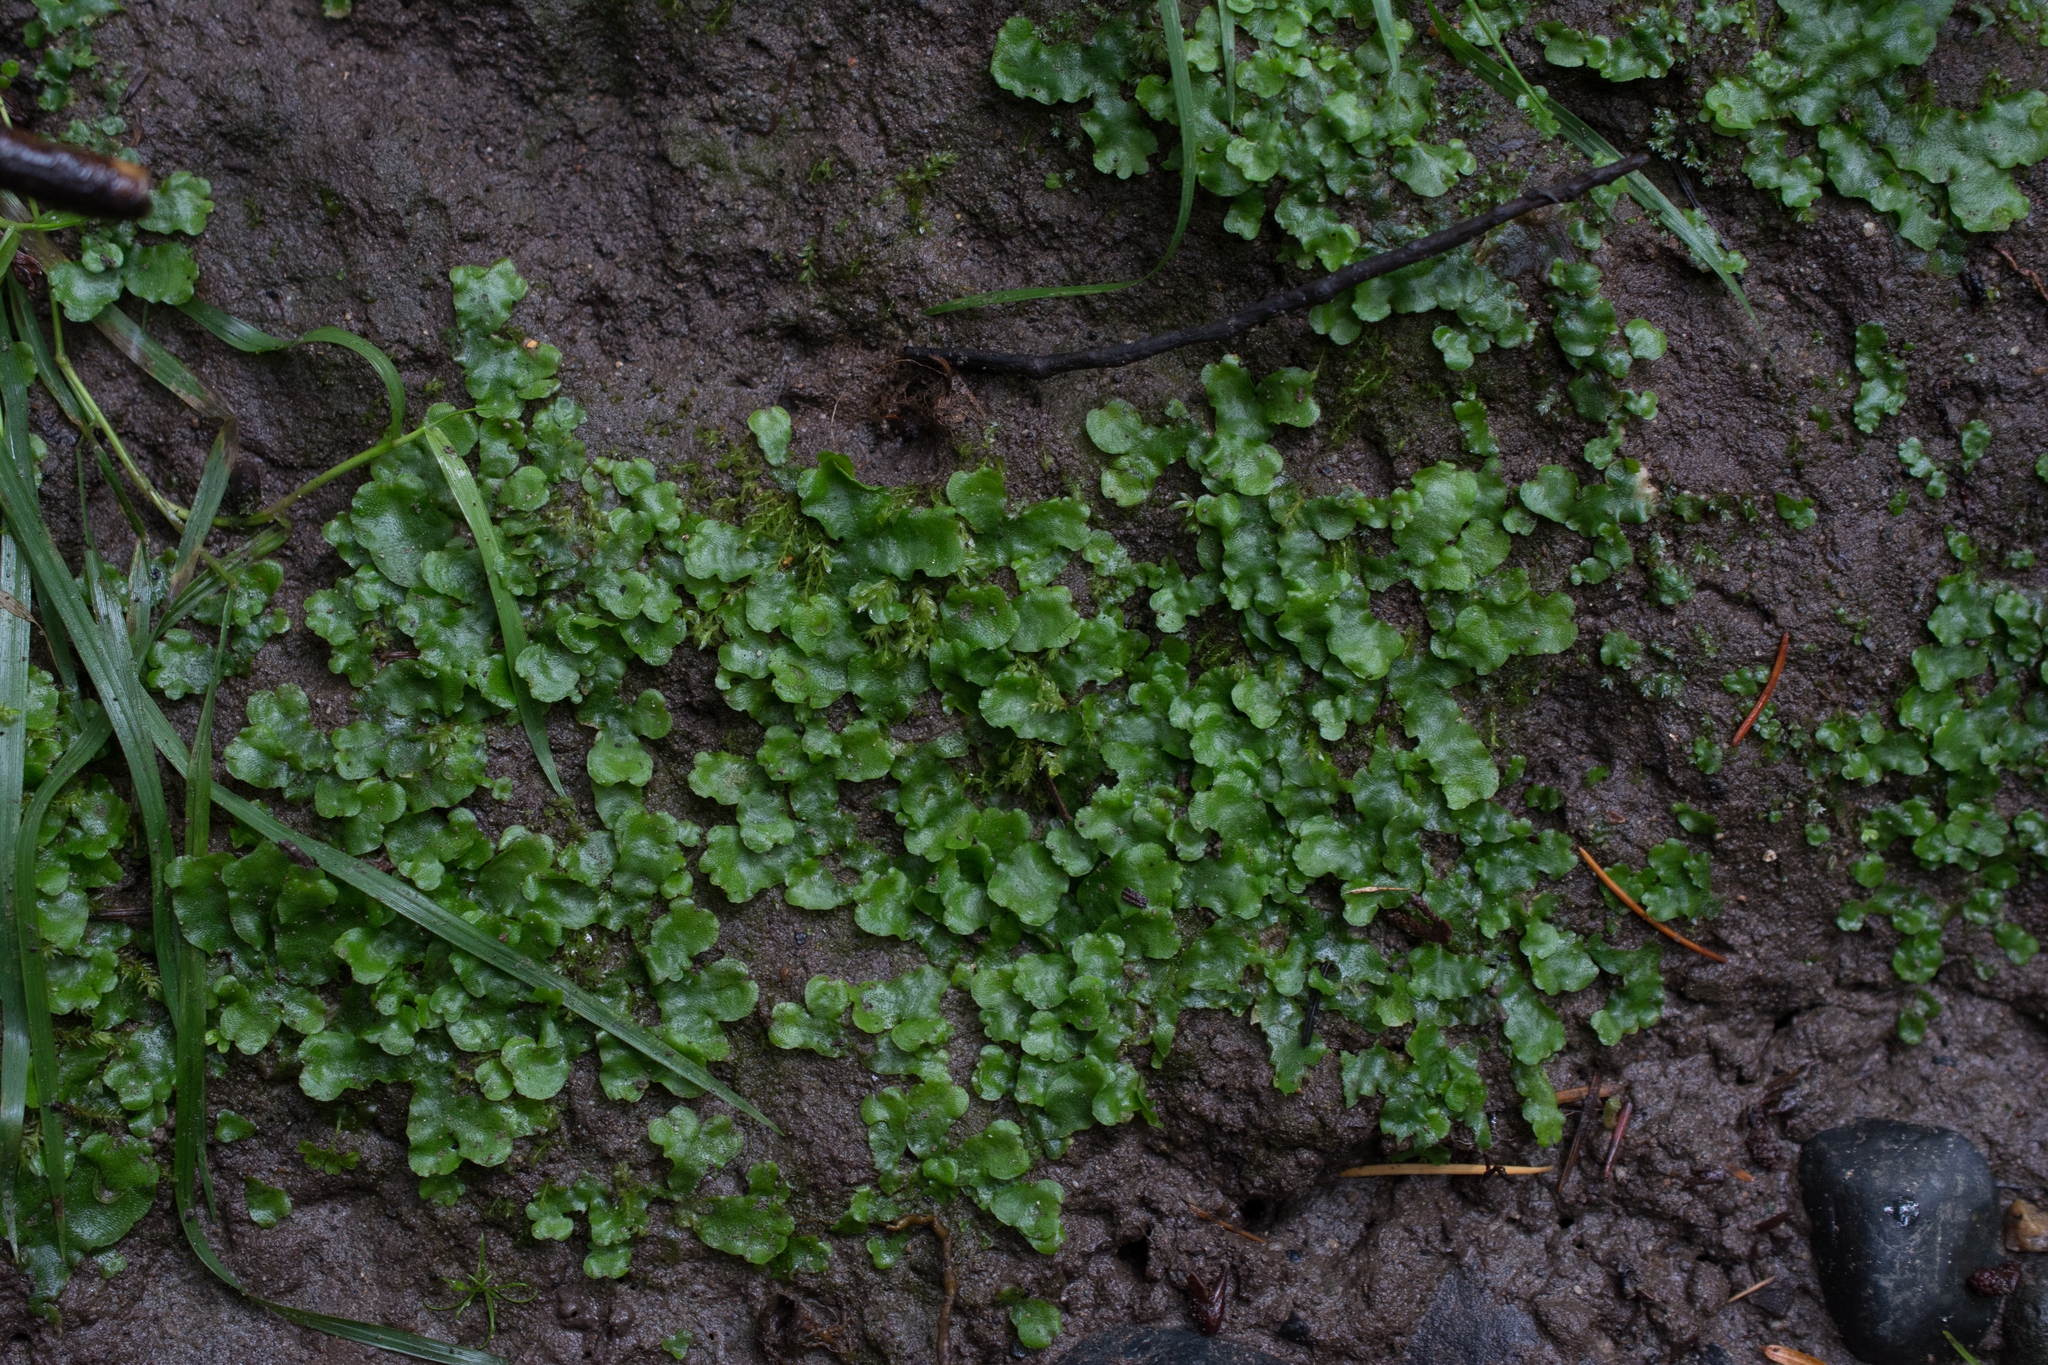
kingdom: Plantae
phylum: Marchantiophyta
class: Marchantiopsida
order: Lunulariales
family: Lunulariaceae
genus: Lunularia
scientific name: Lunularia cruciata
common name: Crescent-cup liverwort
